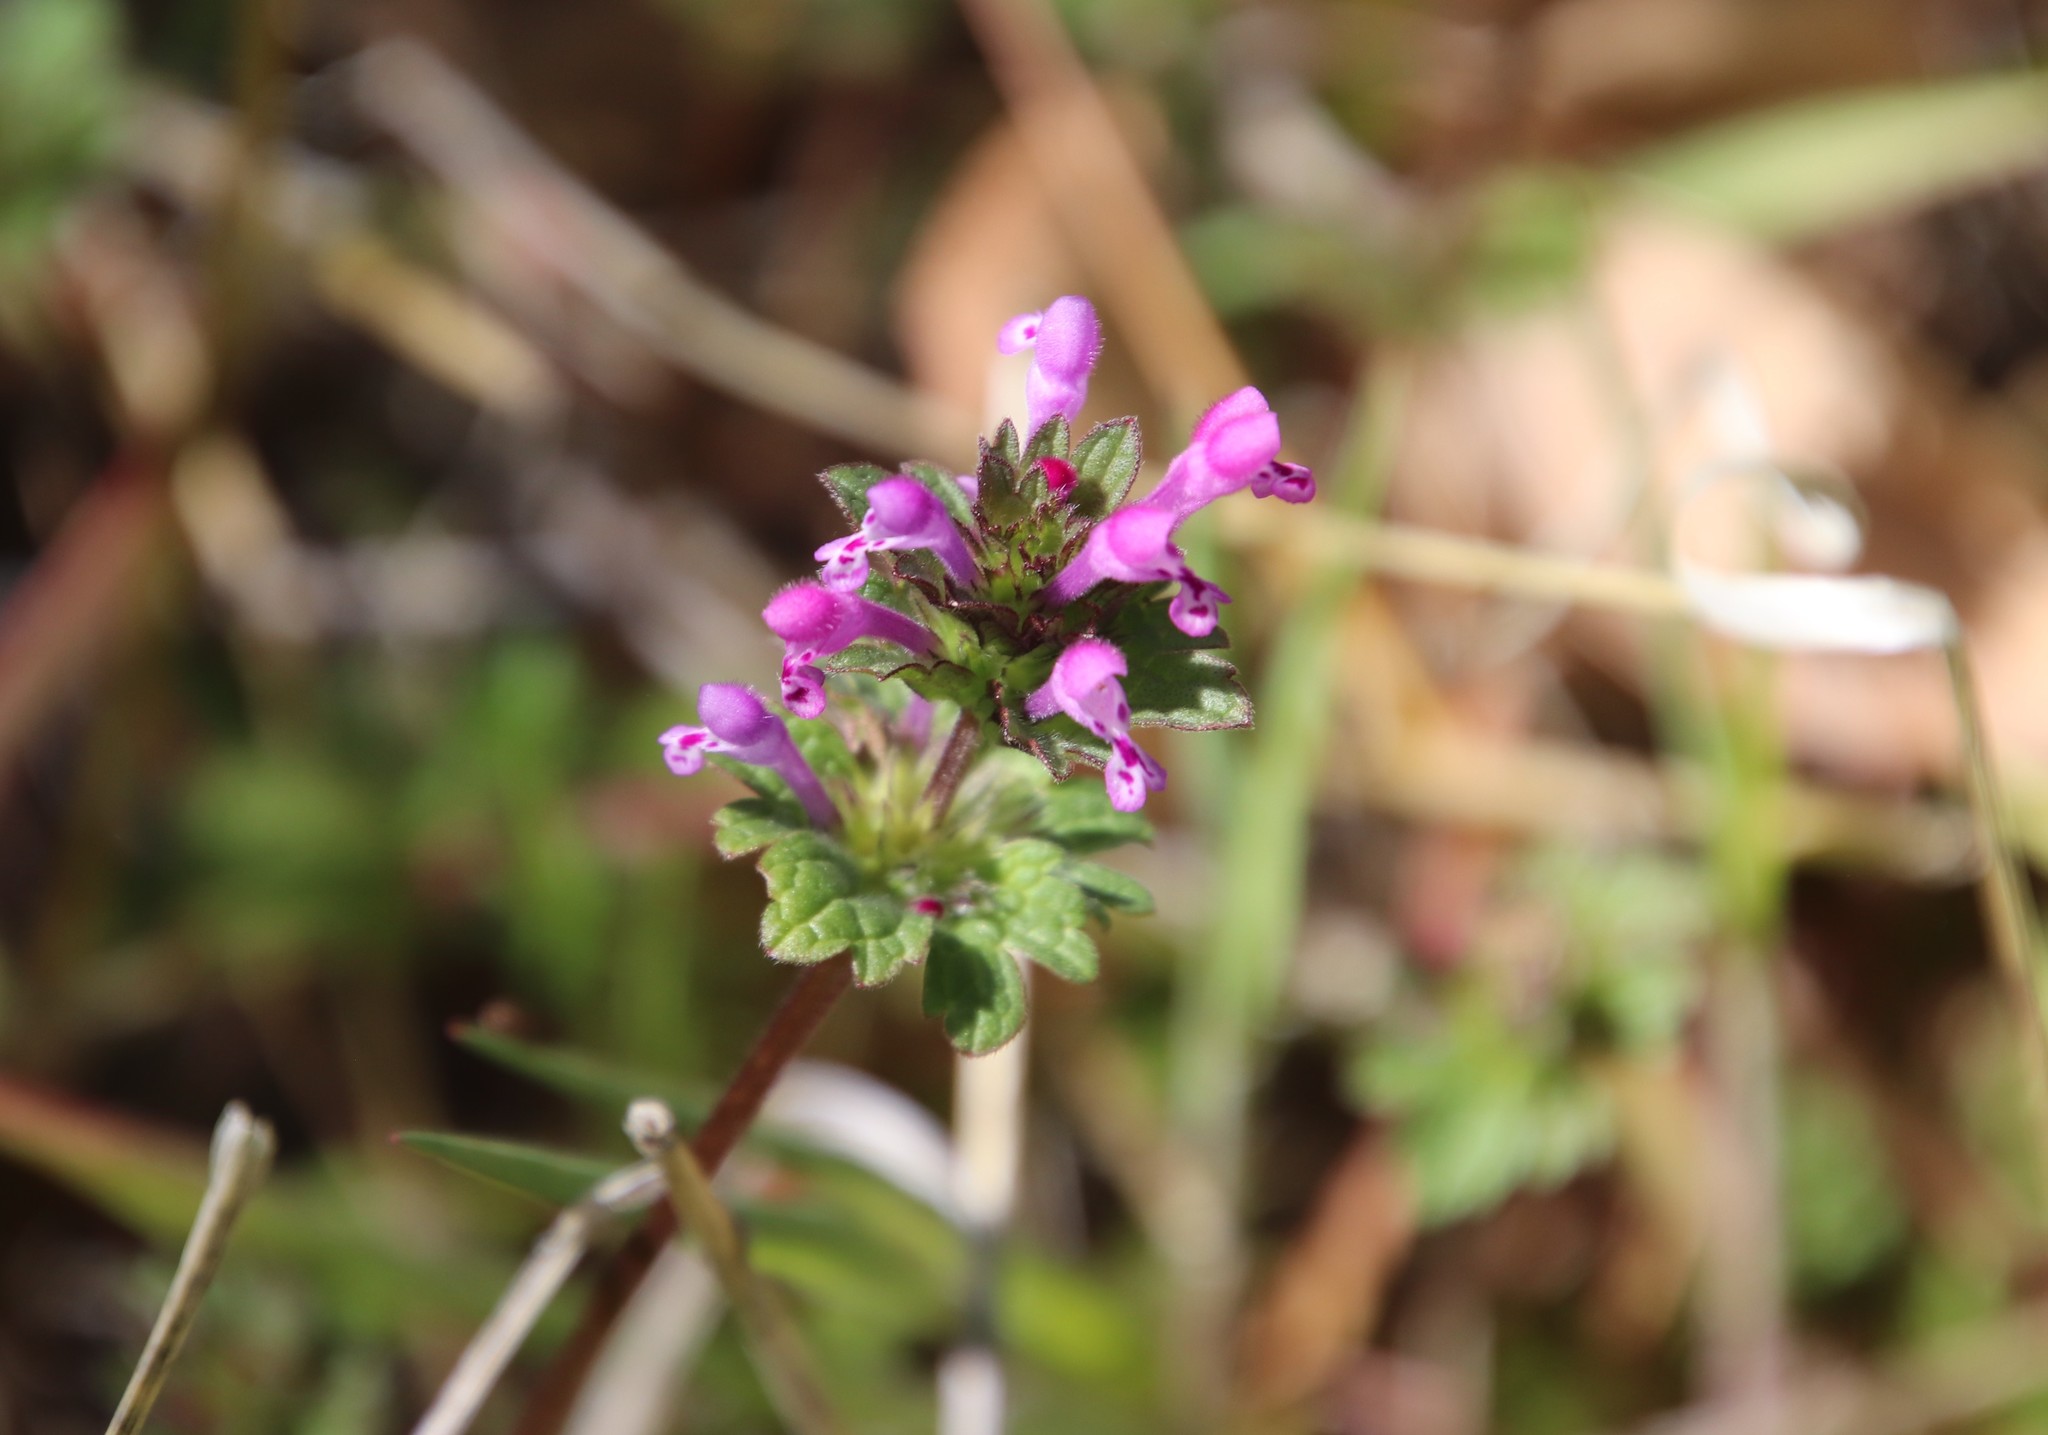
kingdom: Plantae
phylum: Tracheophyta
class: Magnoliopsida
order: Lamiales
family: Lamiaceae
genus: Lamium
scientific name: Lamium amplexicaule
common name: Henbit dead-nettle
